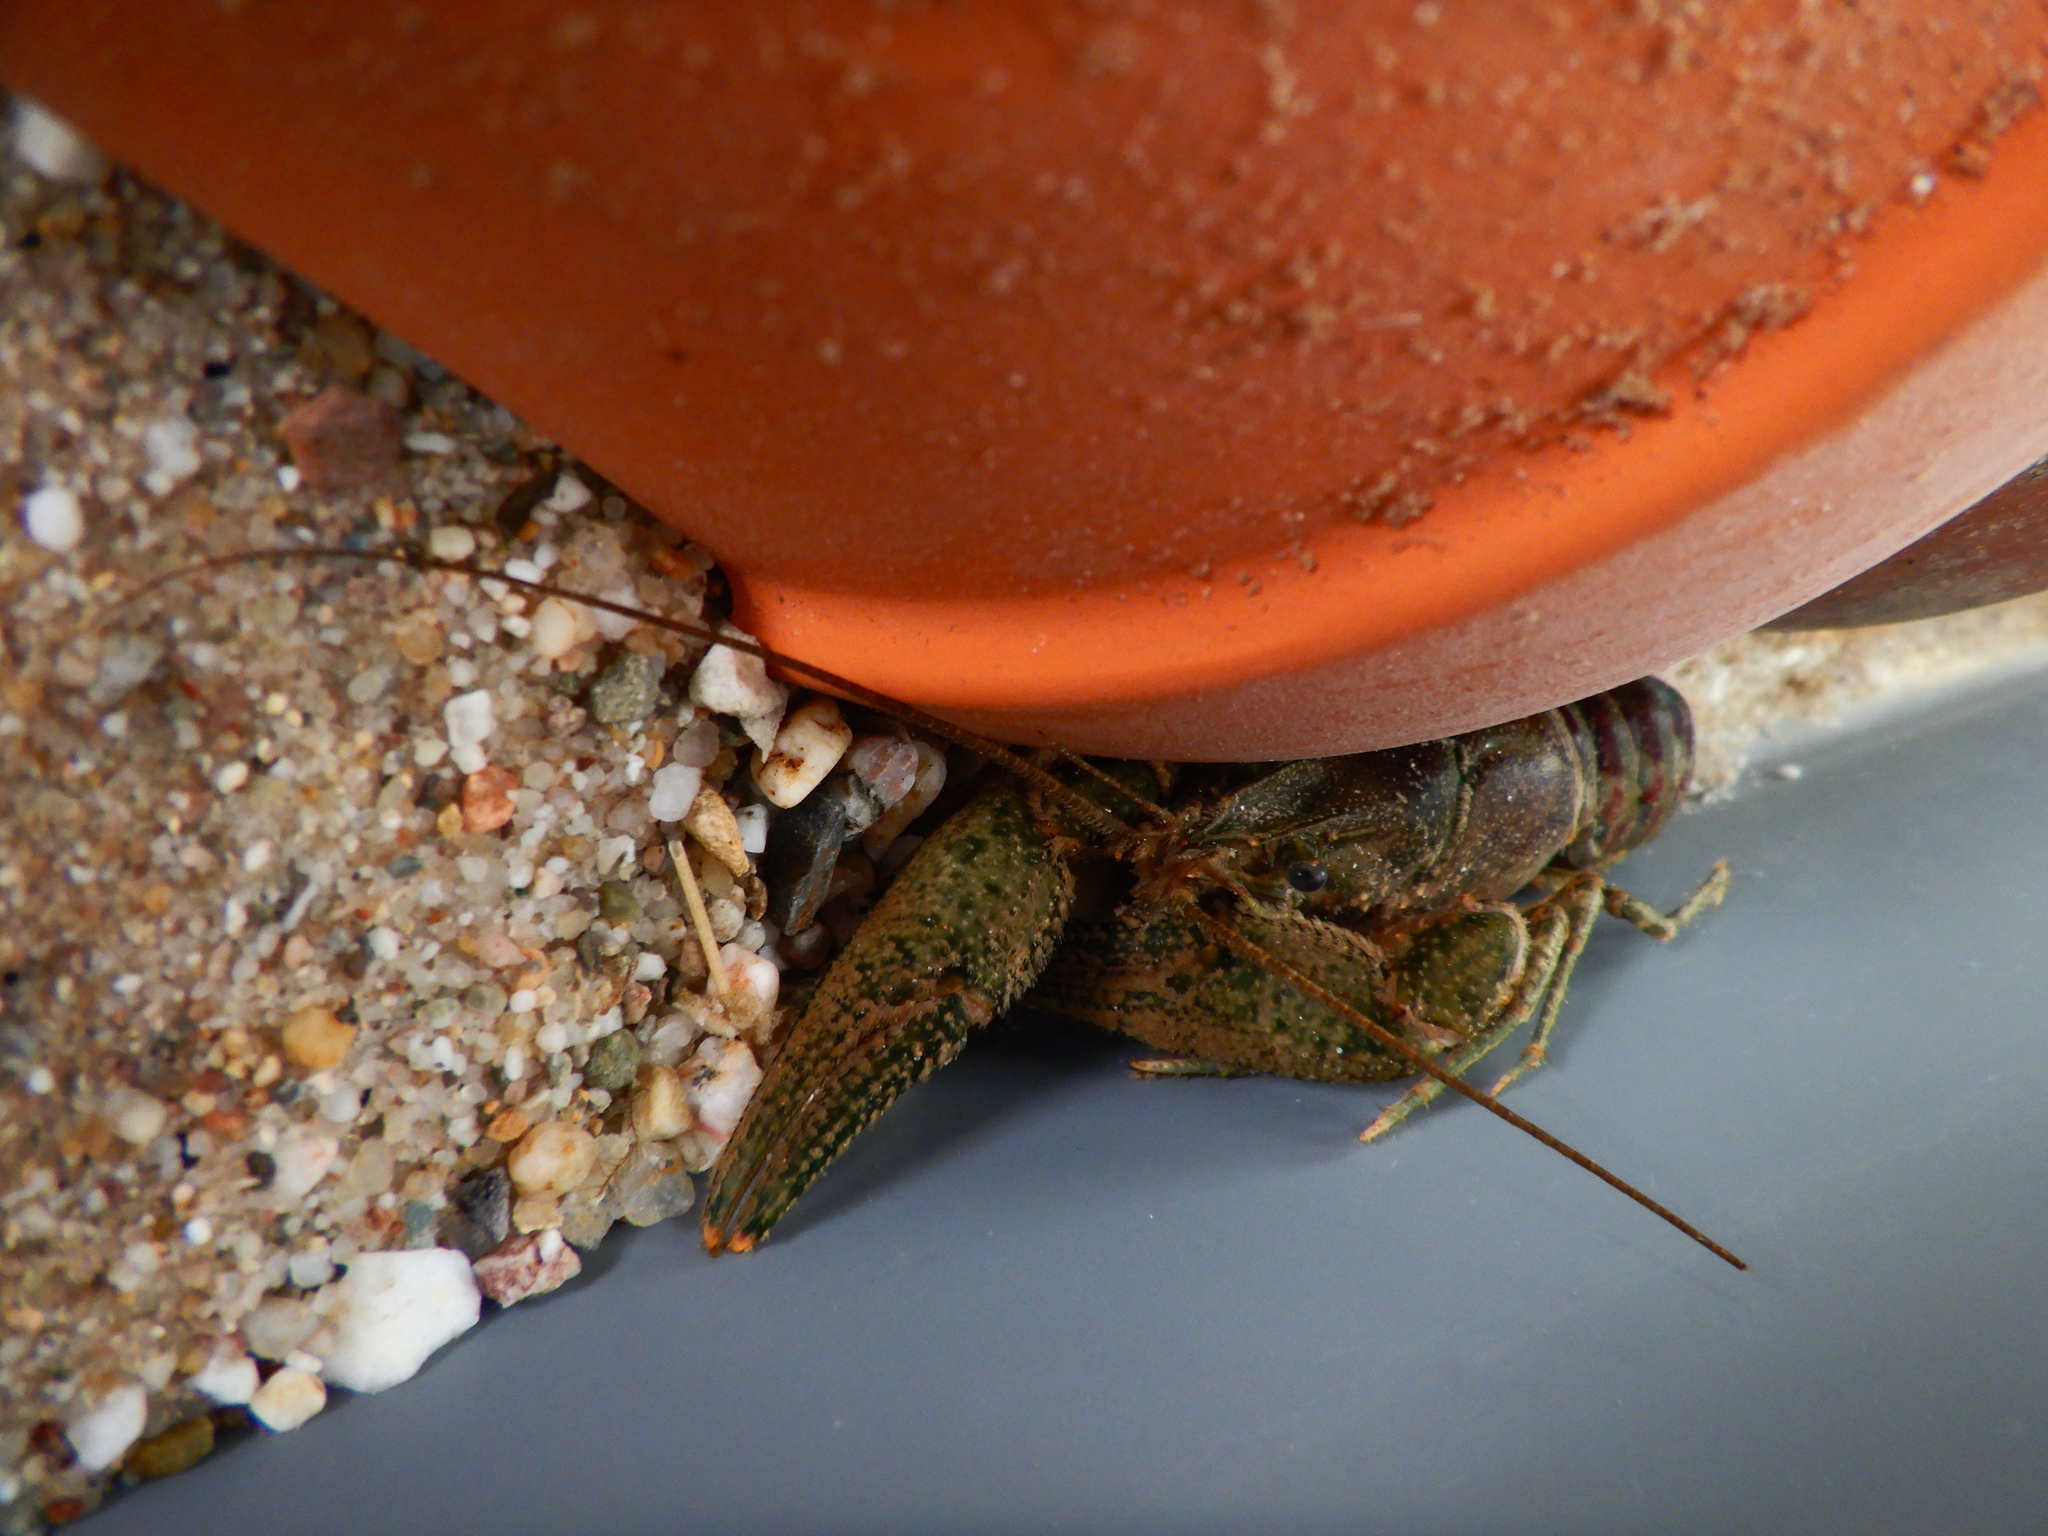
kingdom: Animalia
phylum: Arthropoda
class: Malacostraca
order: Decapoda
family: Cambaridae
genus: Faxonius
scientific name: Faxonius limosus
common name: American crayfish
